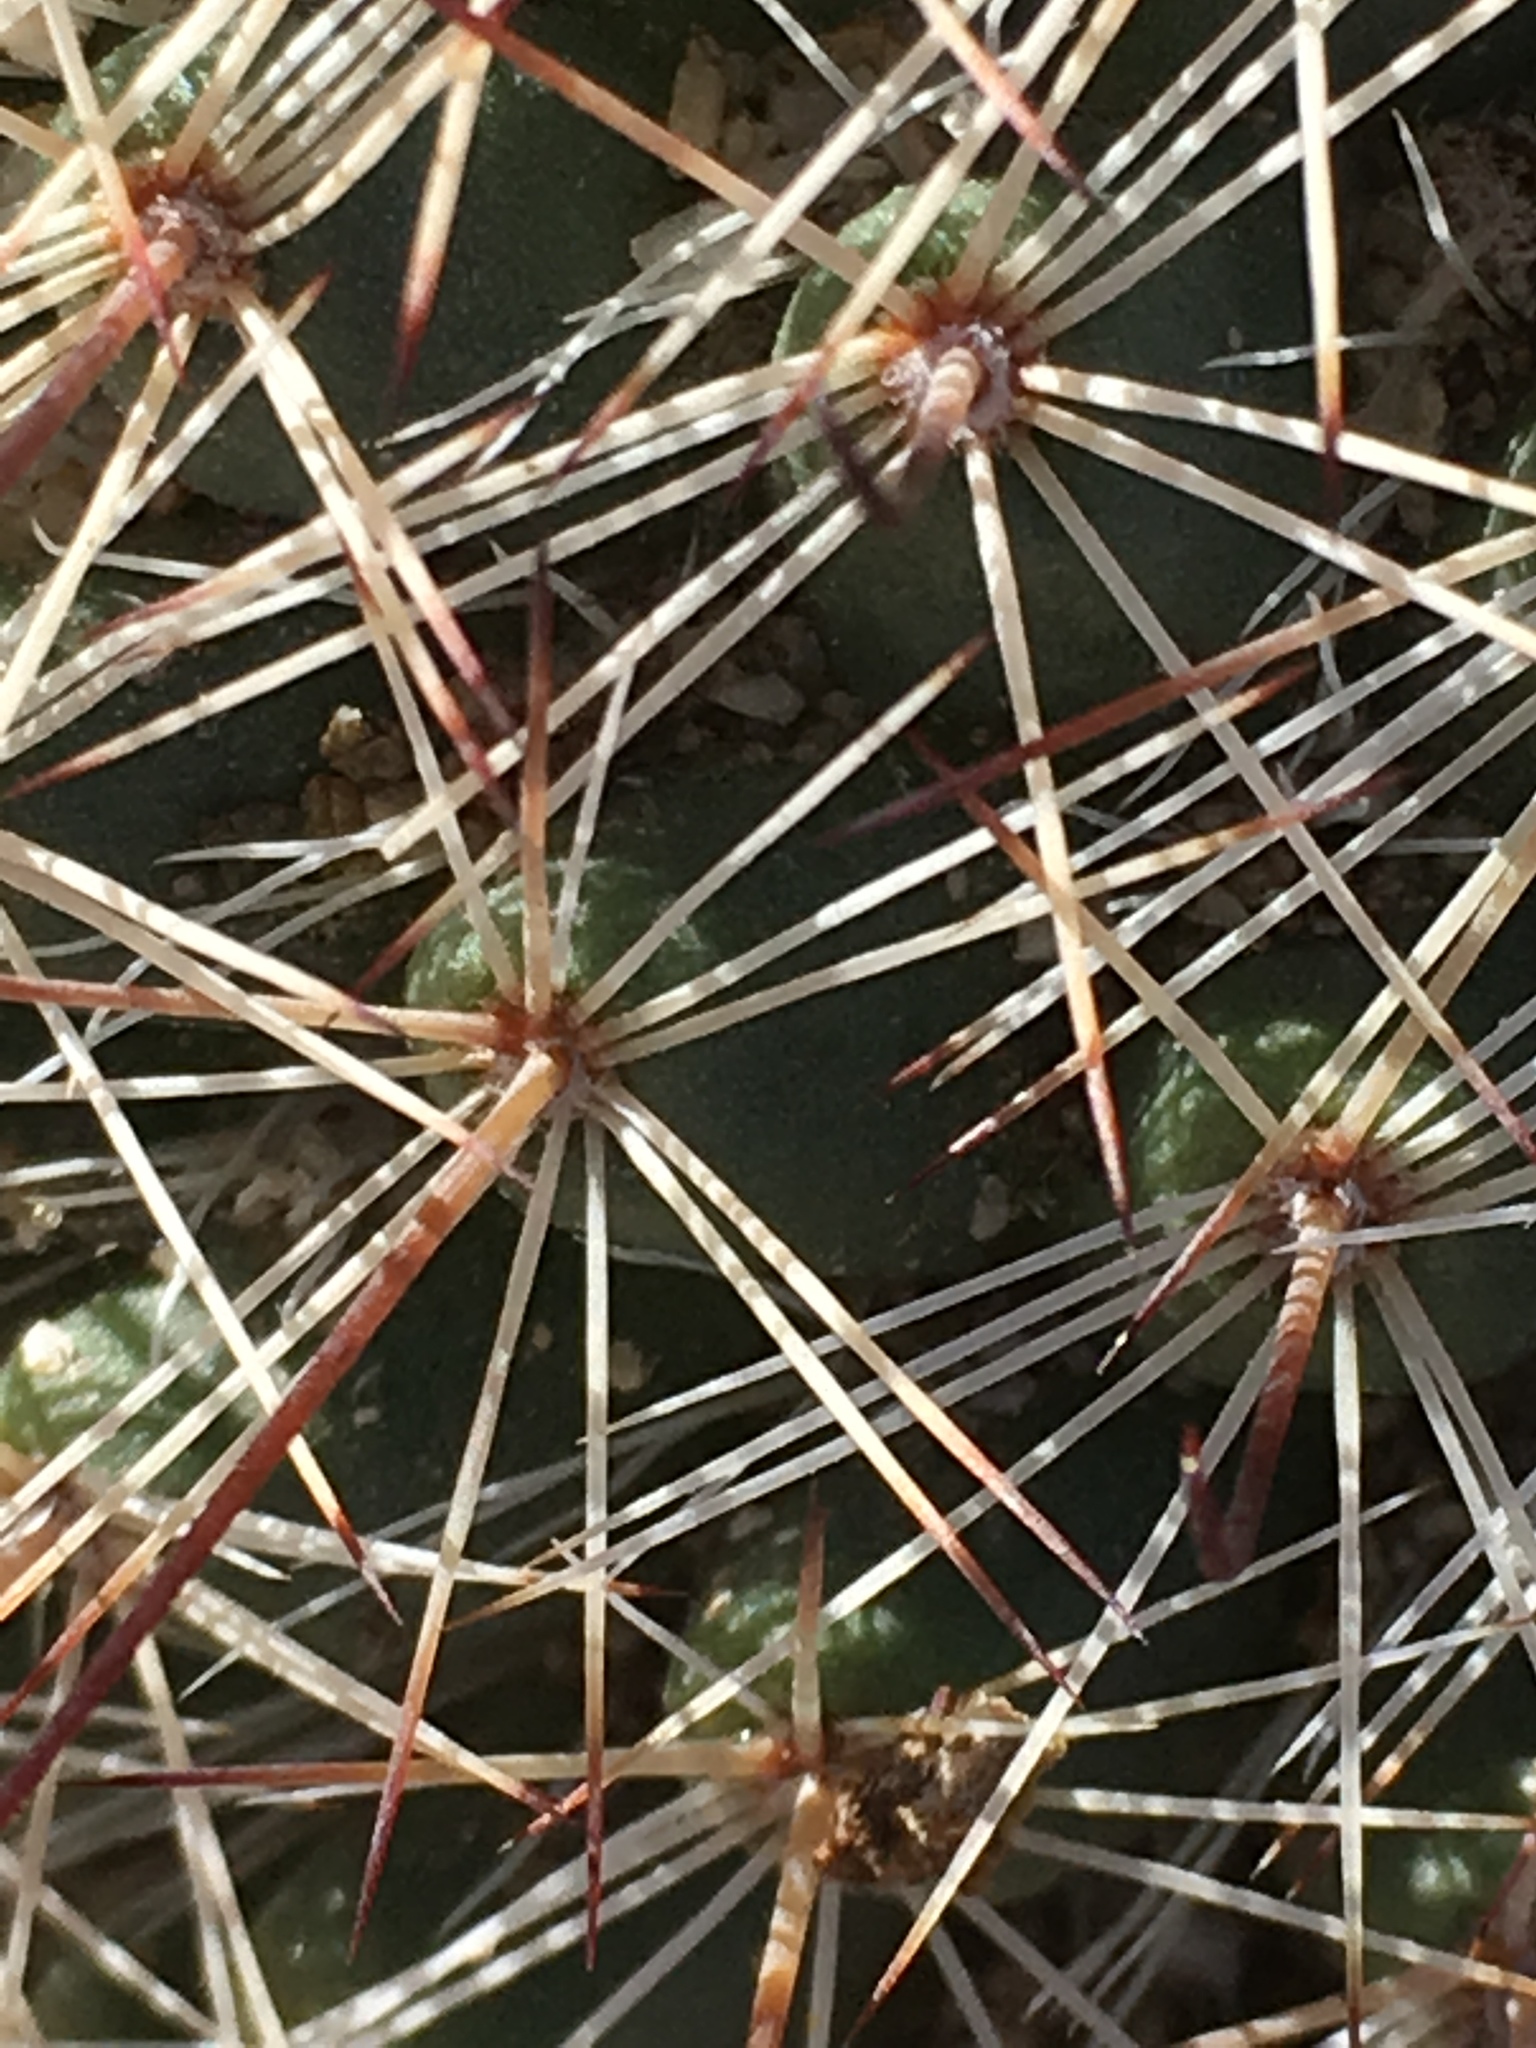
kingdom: Plantae
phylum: Tracheophyta
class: Magnoliopsida
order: Caryophyllales
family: Cactaceae
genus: Cochemiea
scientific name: Cochemiea dioica
